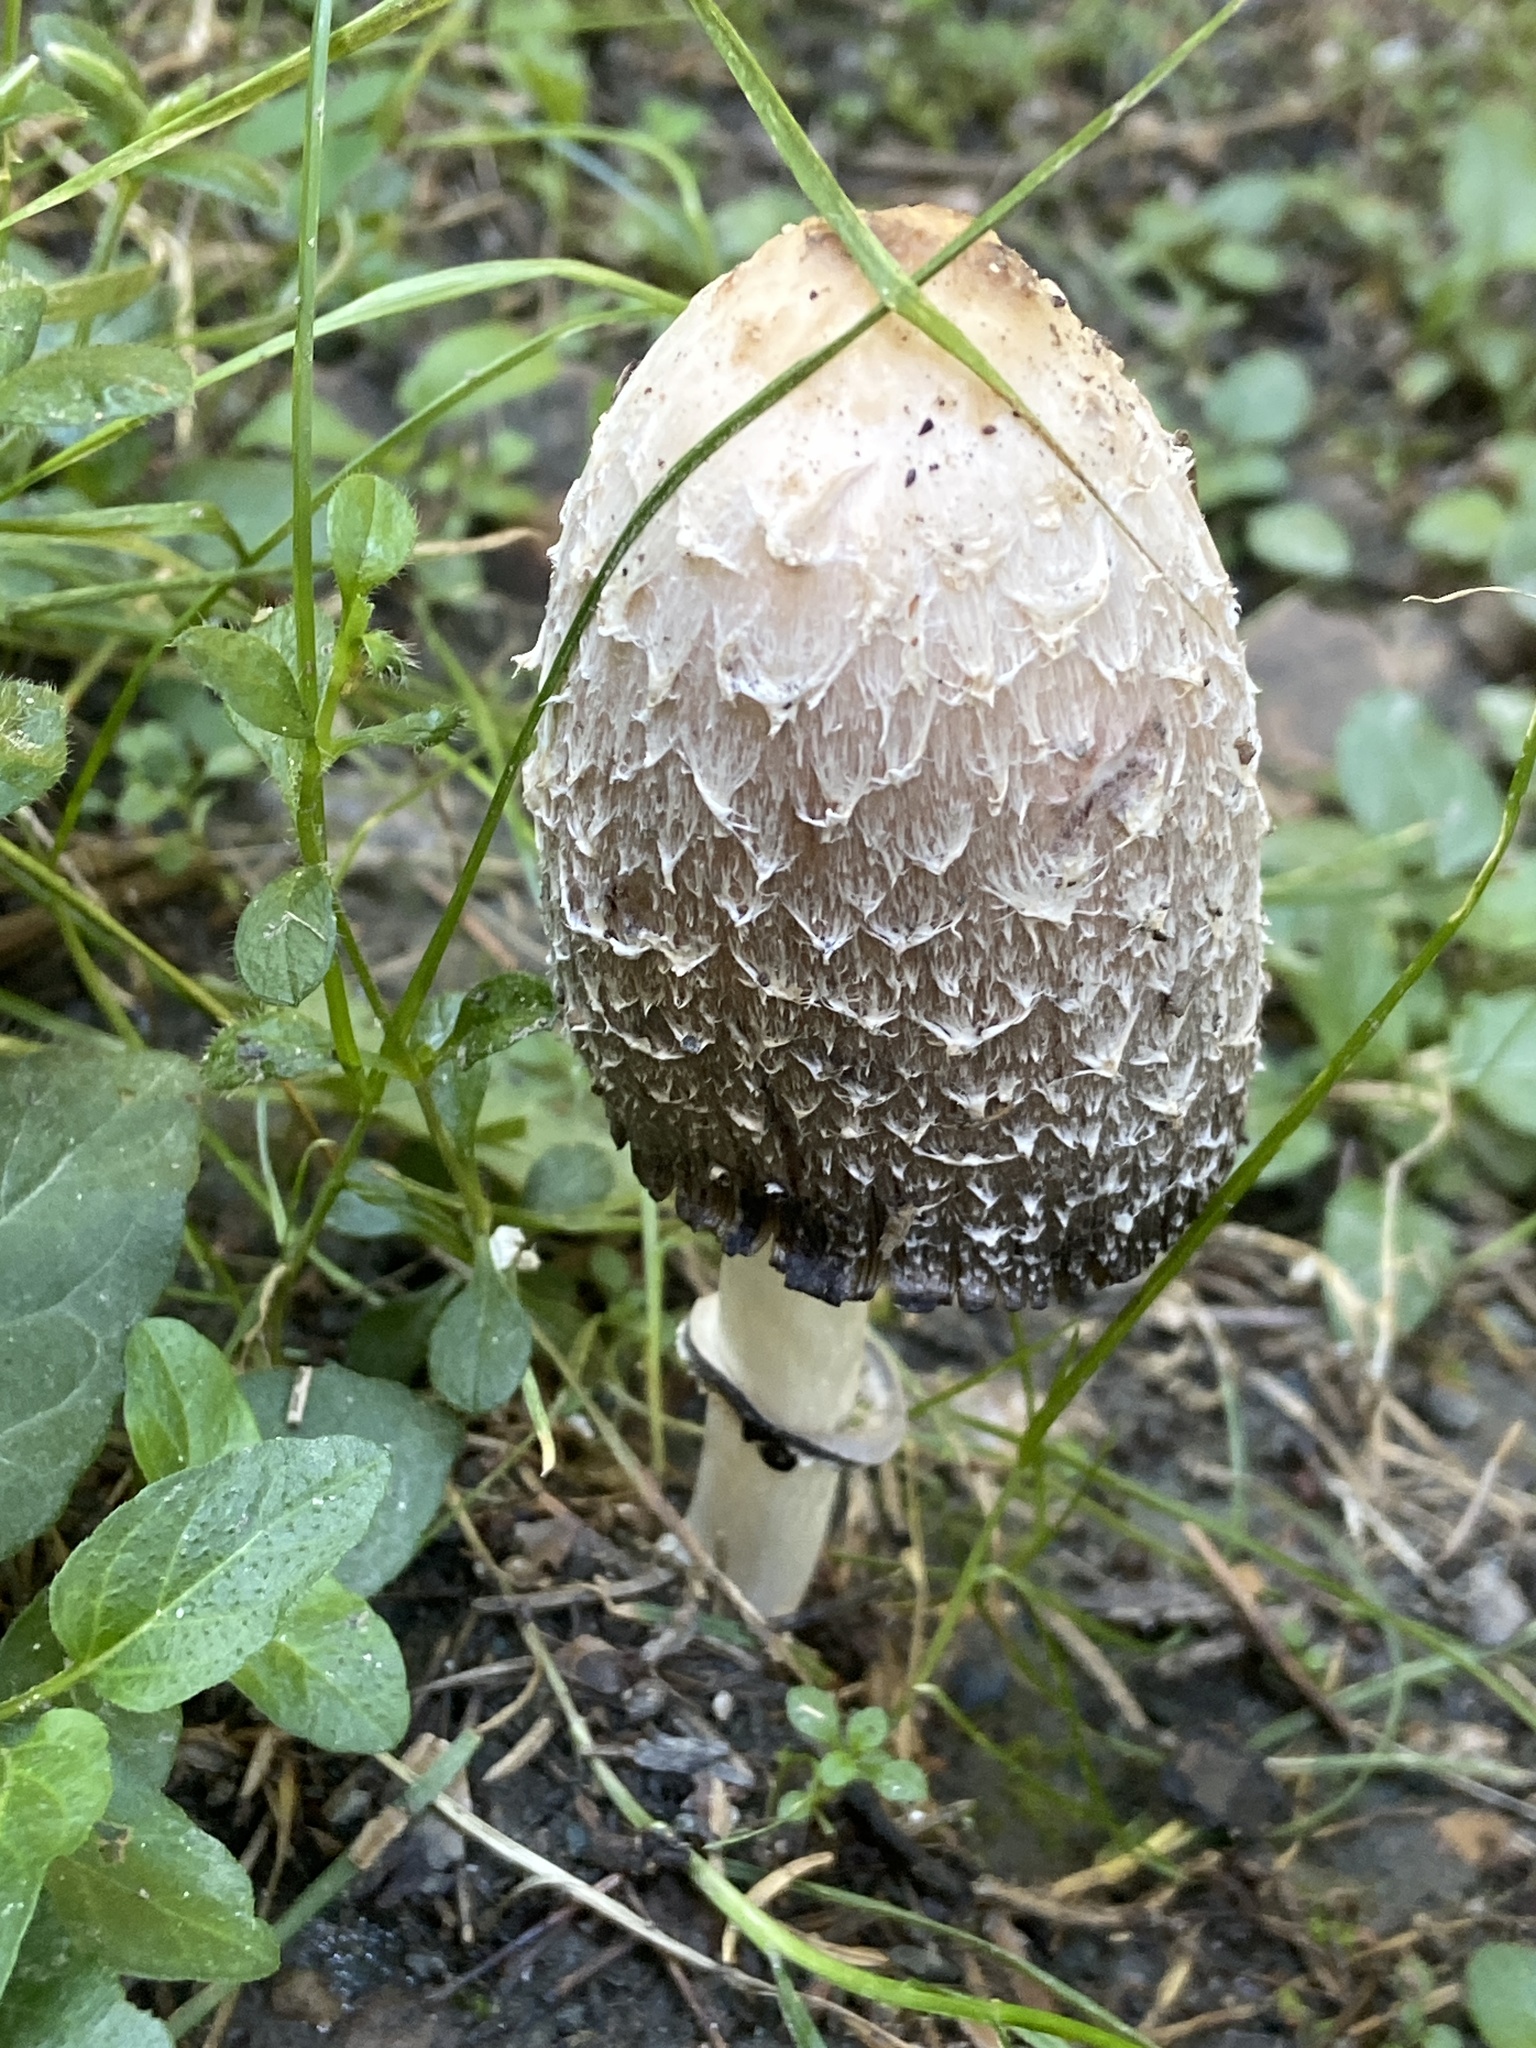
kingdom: Fungi
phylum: Basidiomycota
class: Agaricomycetes
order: Agaricales
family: Agaricaceae
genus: Coprinus
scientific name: Coprinus comatus
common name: Lawyer's wig
